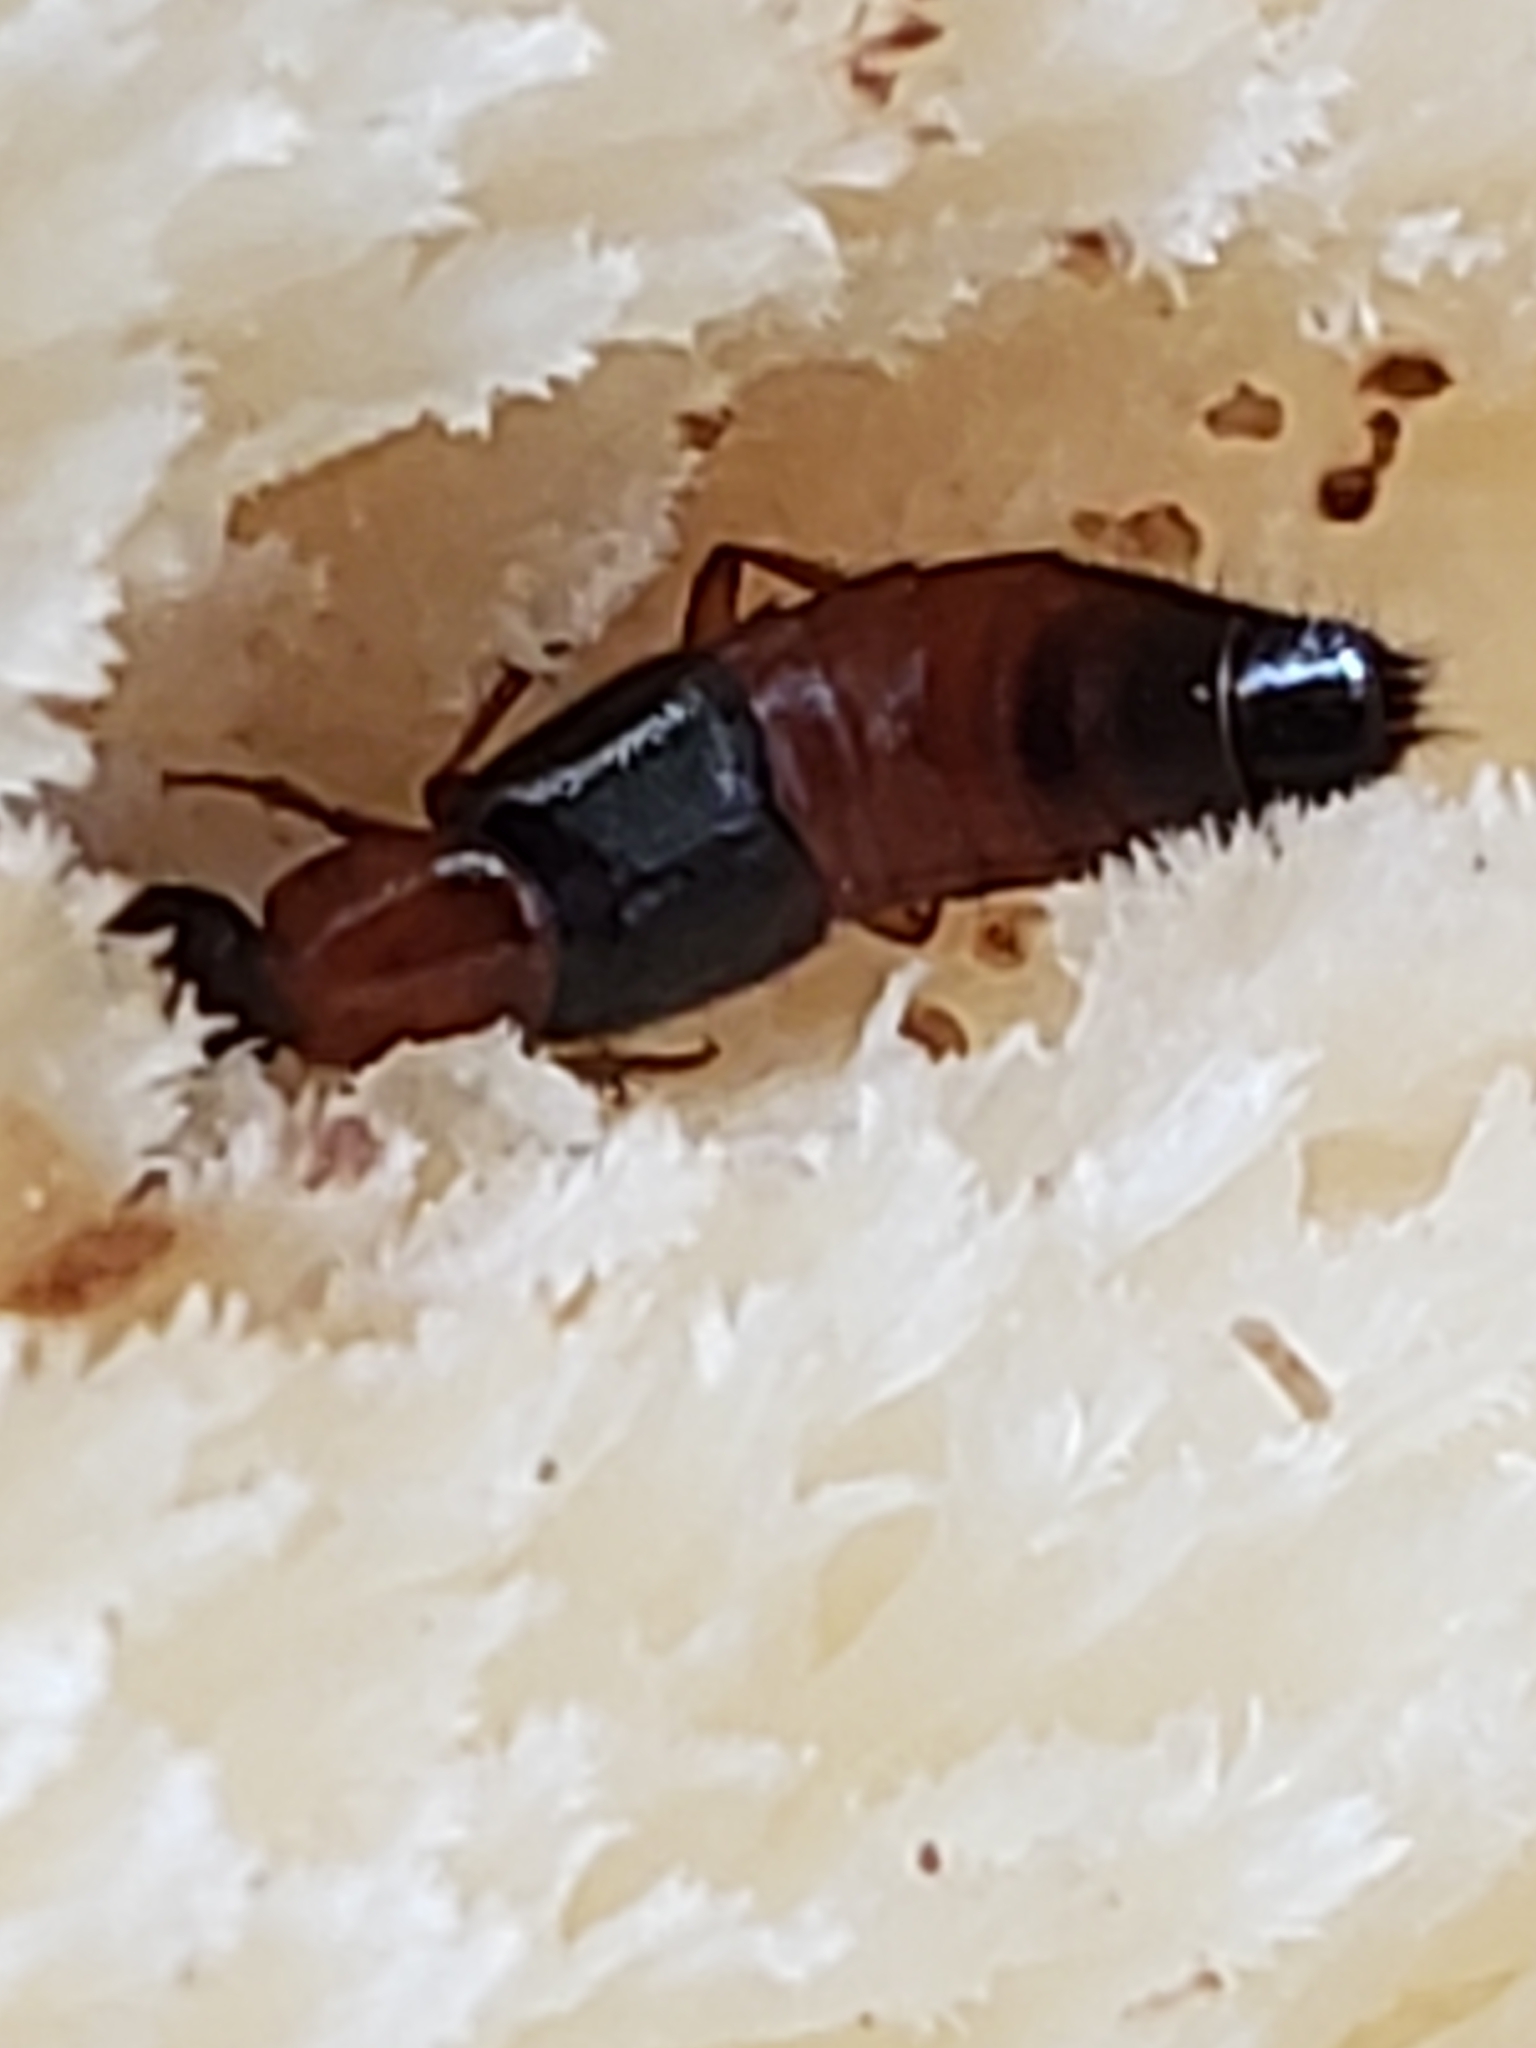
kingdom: Animalia
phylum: Arthropoda
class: Insecta
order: Coleoptera
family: Staphylinidae
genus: Bisnius
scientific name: Bisnius blandus
